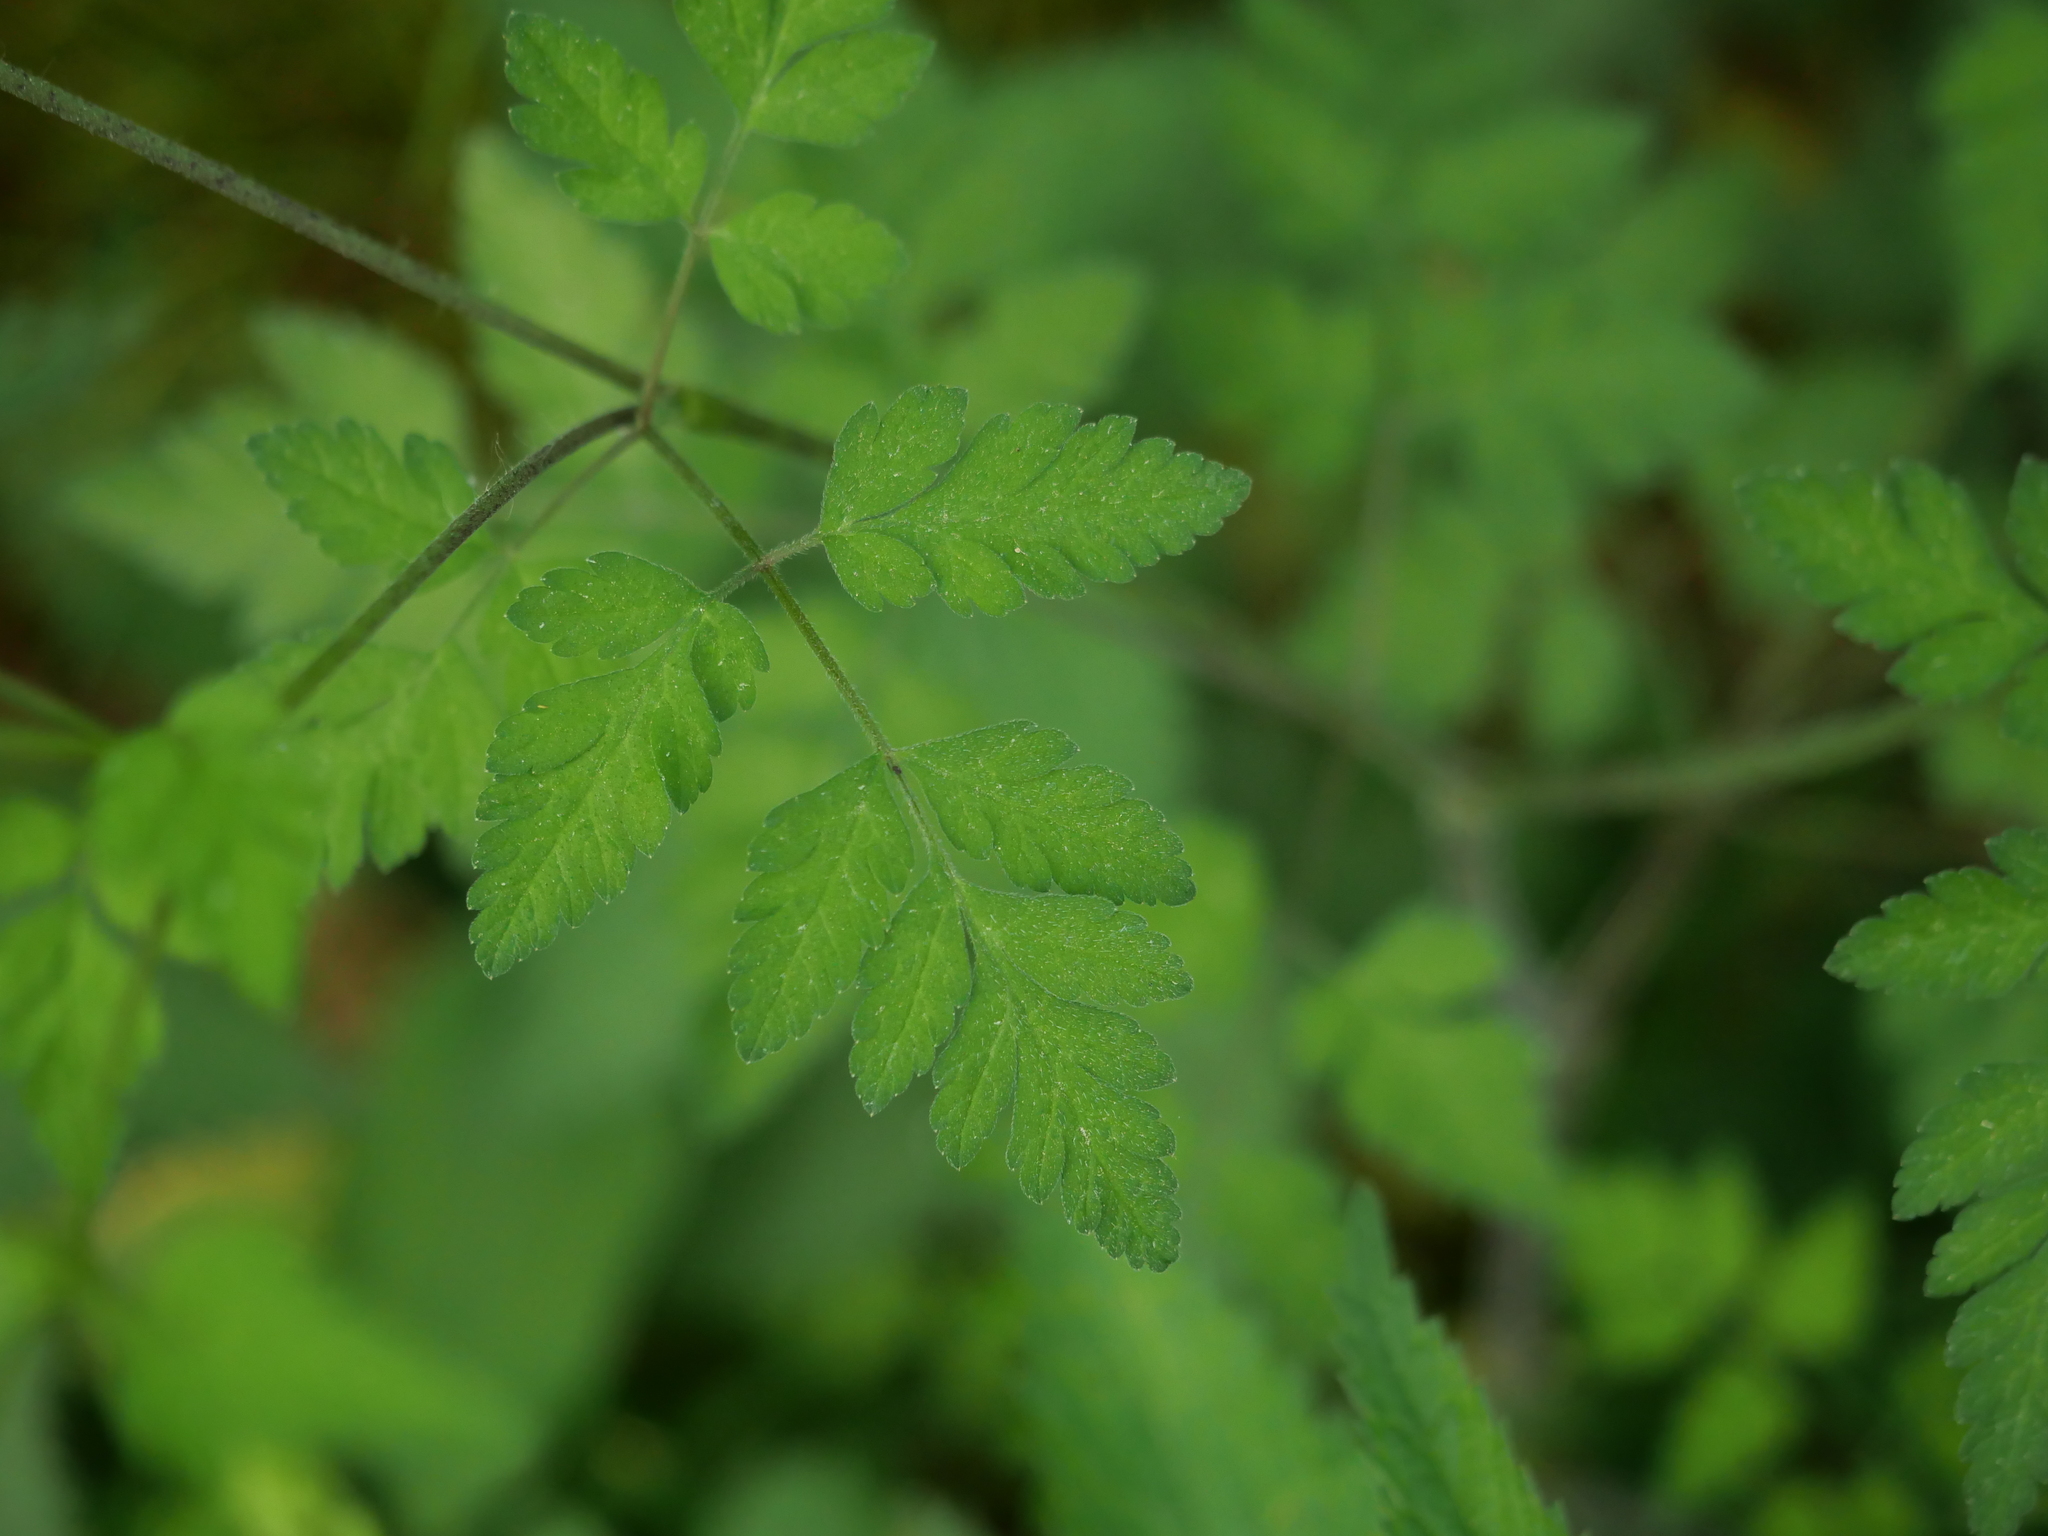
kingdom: Plantae
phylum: Tracheophyta
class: Magnoliopsida
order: Apiales
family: Apiaceae
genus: Chaerophyllum
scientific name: Chaerophyllum temulum
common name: Rough chervil
